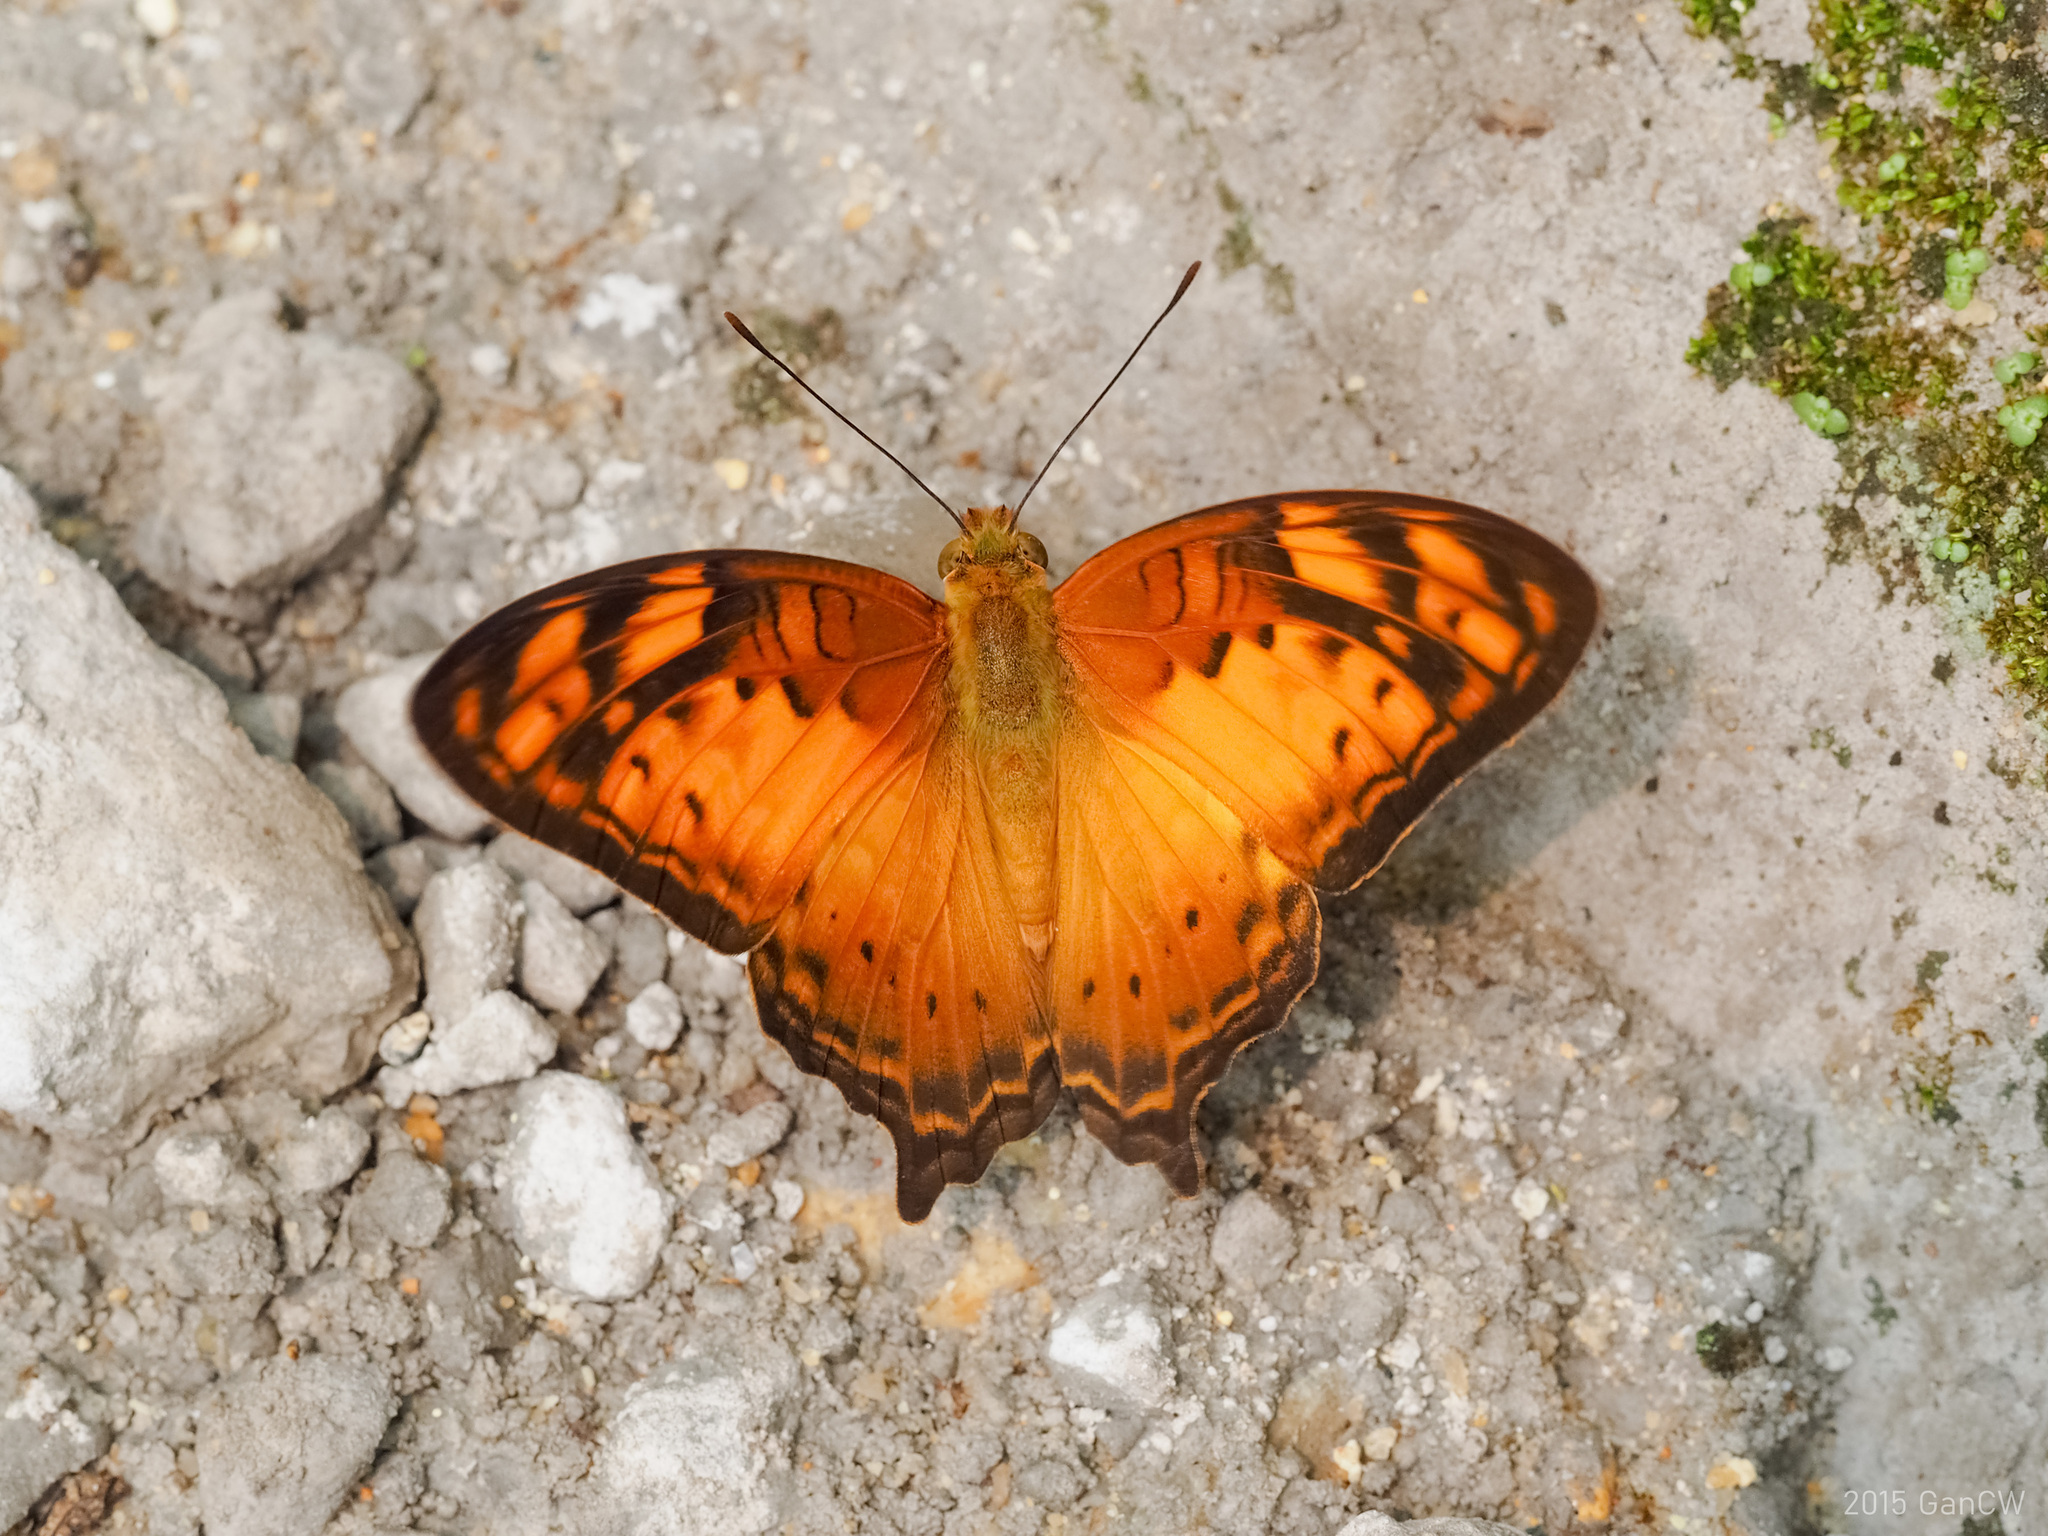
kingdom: Animalia
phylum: Arthropoda
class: Insecta
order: Lepidoptera
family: Nymphalidae
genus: Vagrans
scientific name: Vagrans sinha
